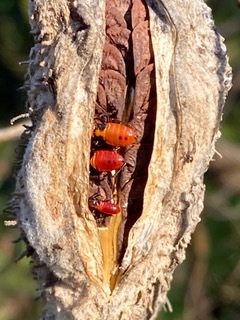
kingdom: Animalia
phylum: Arthropoda
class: Insecta
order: Hemiptera
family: Lygaeidae
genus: Oncopeltus
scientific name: Oncopeltus fasciatus
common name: Large milkweed bug
